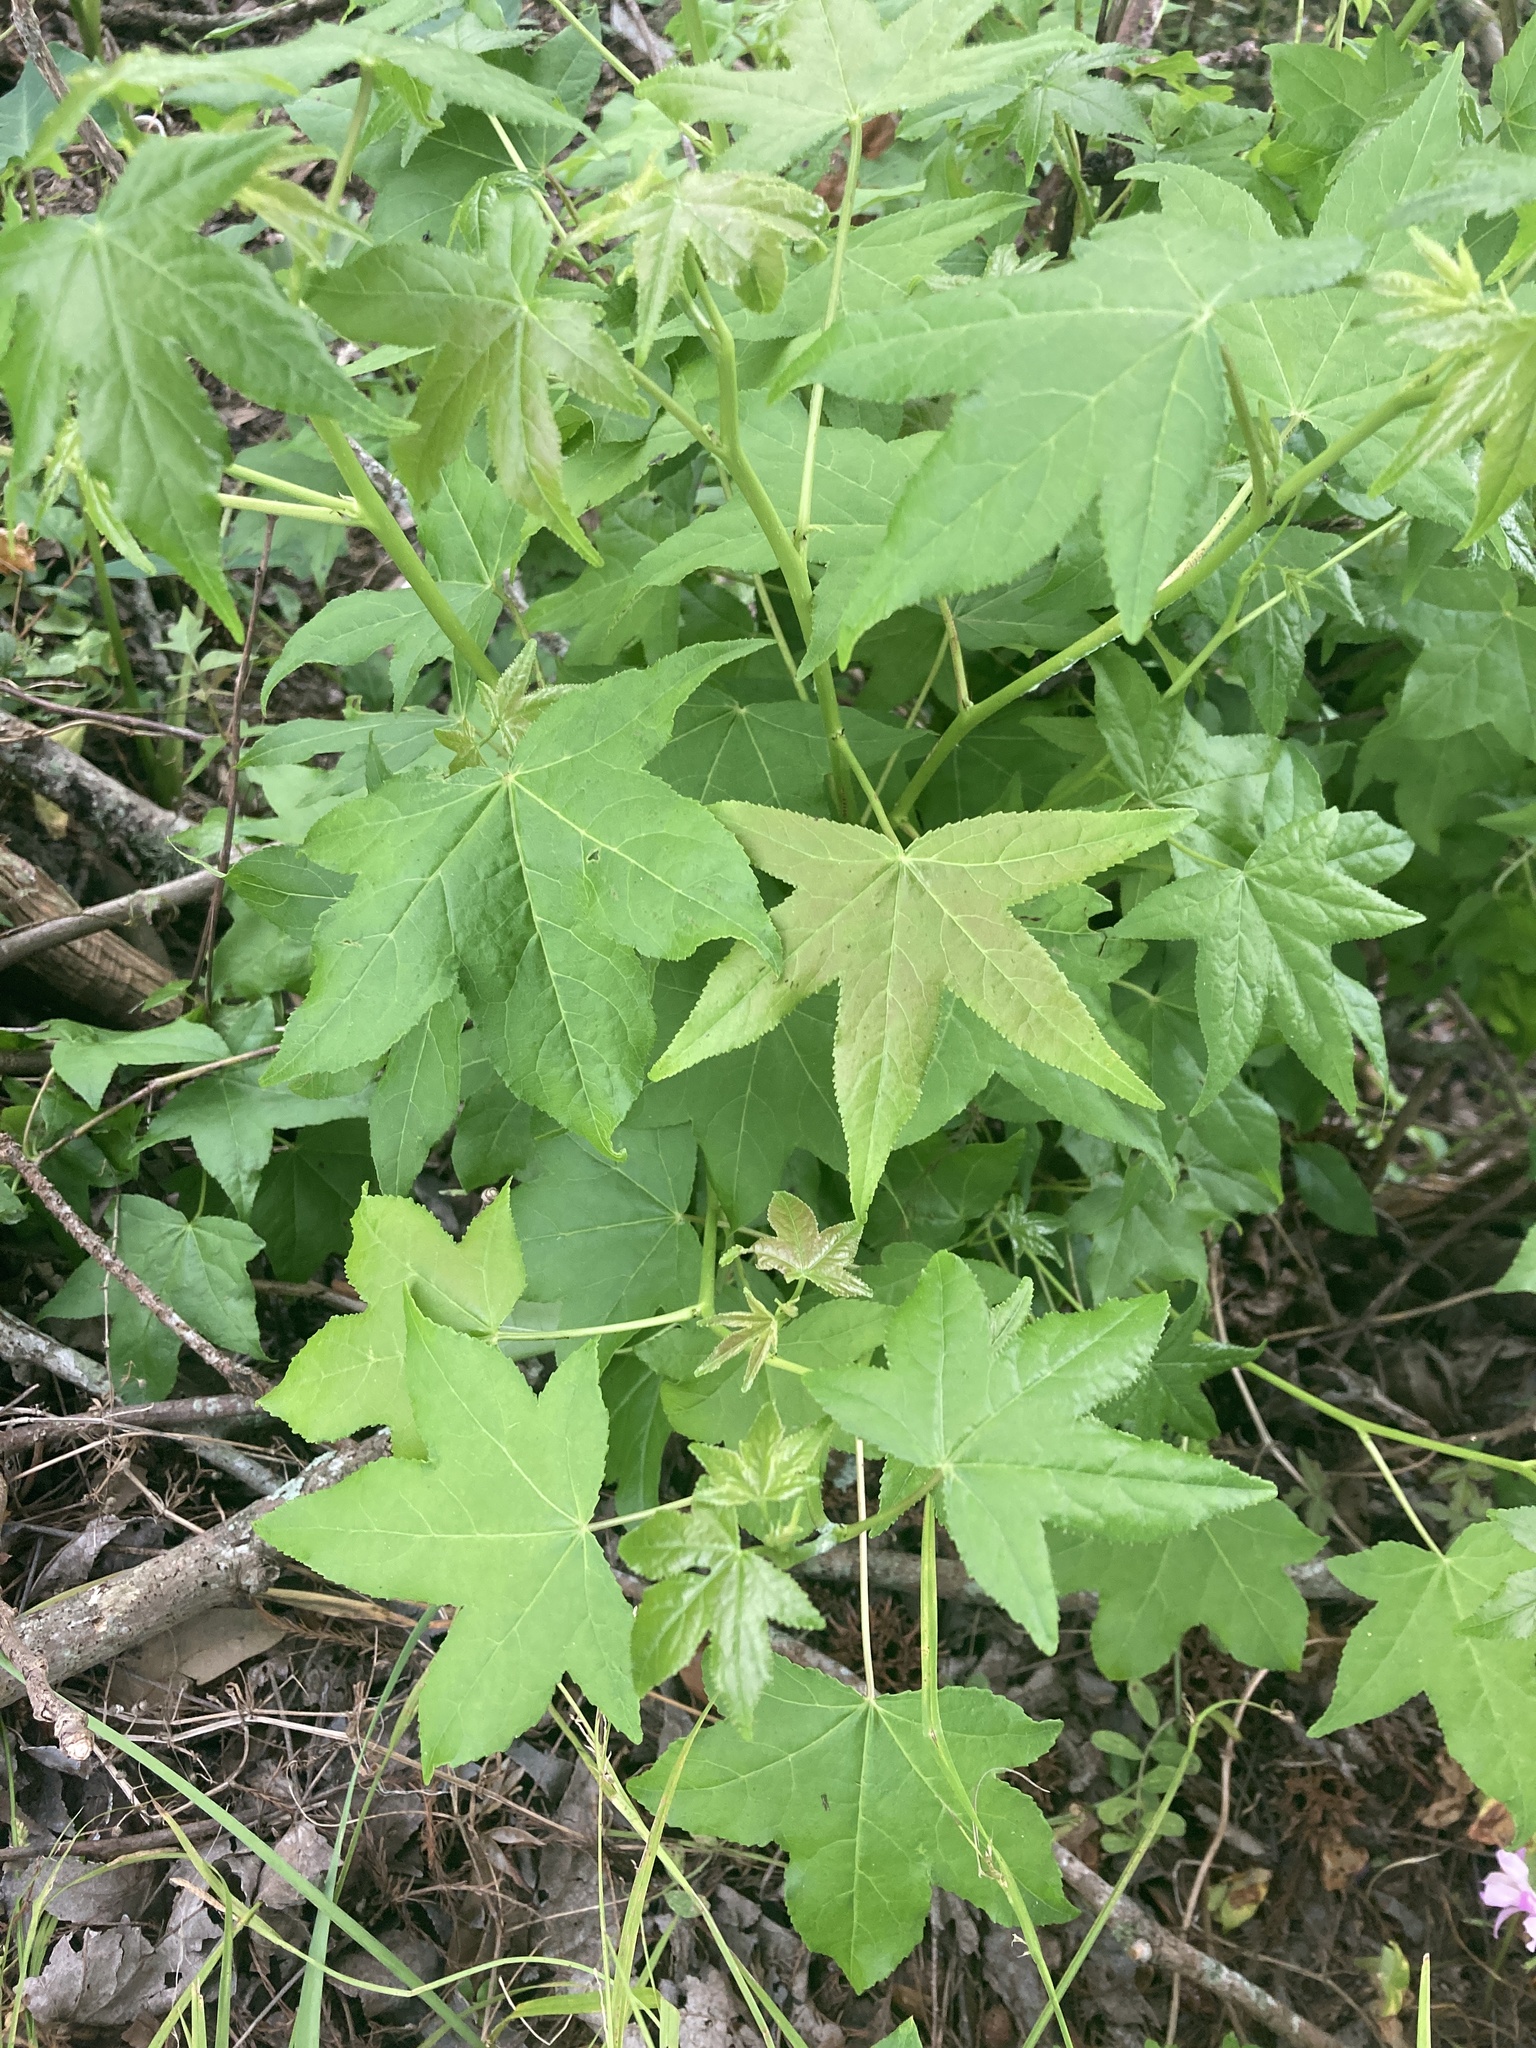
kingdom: Plantae
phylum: Tracheophyta
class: Magnoliopsida
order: Saxifragales
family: Altingiaceae
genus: Liquidambar
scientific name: Liquidambar styraciflua
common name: Sweet gum
